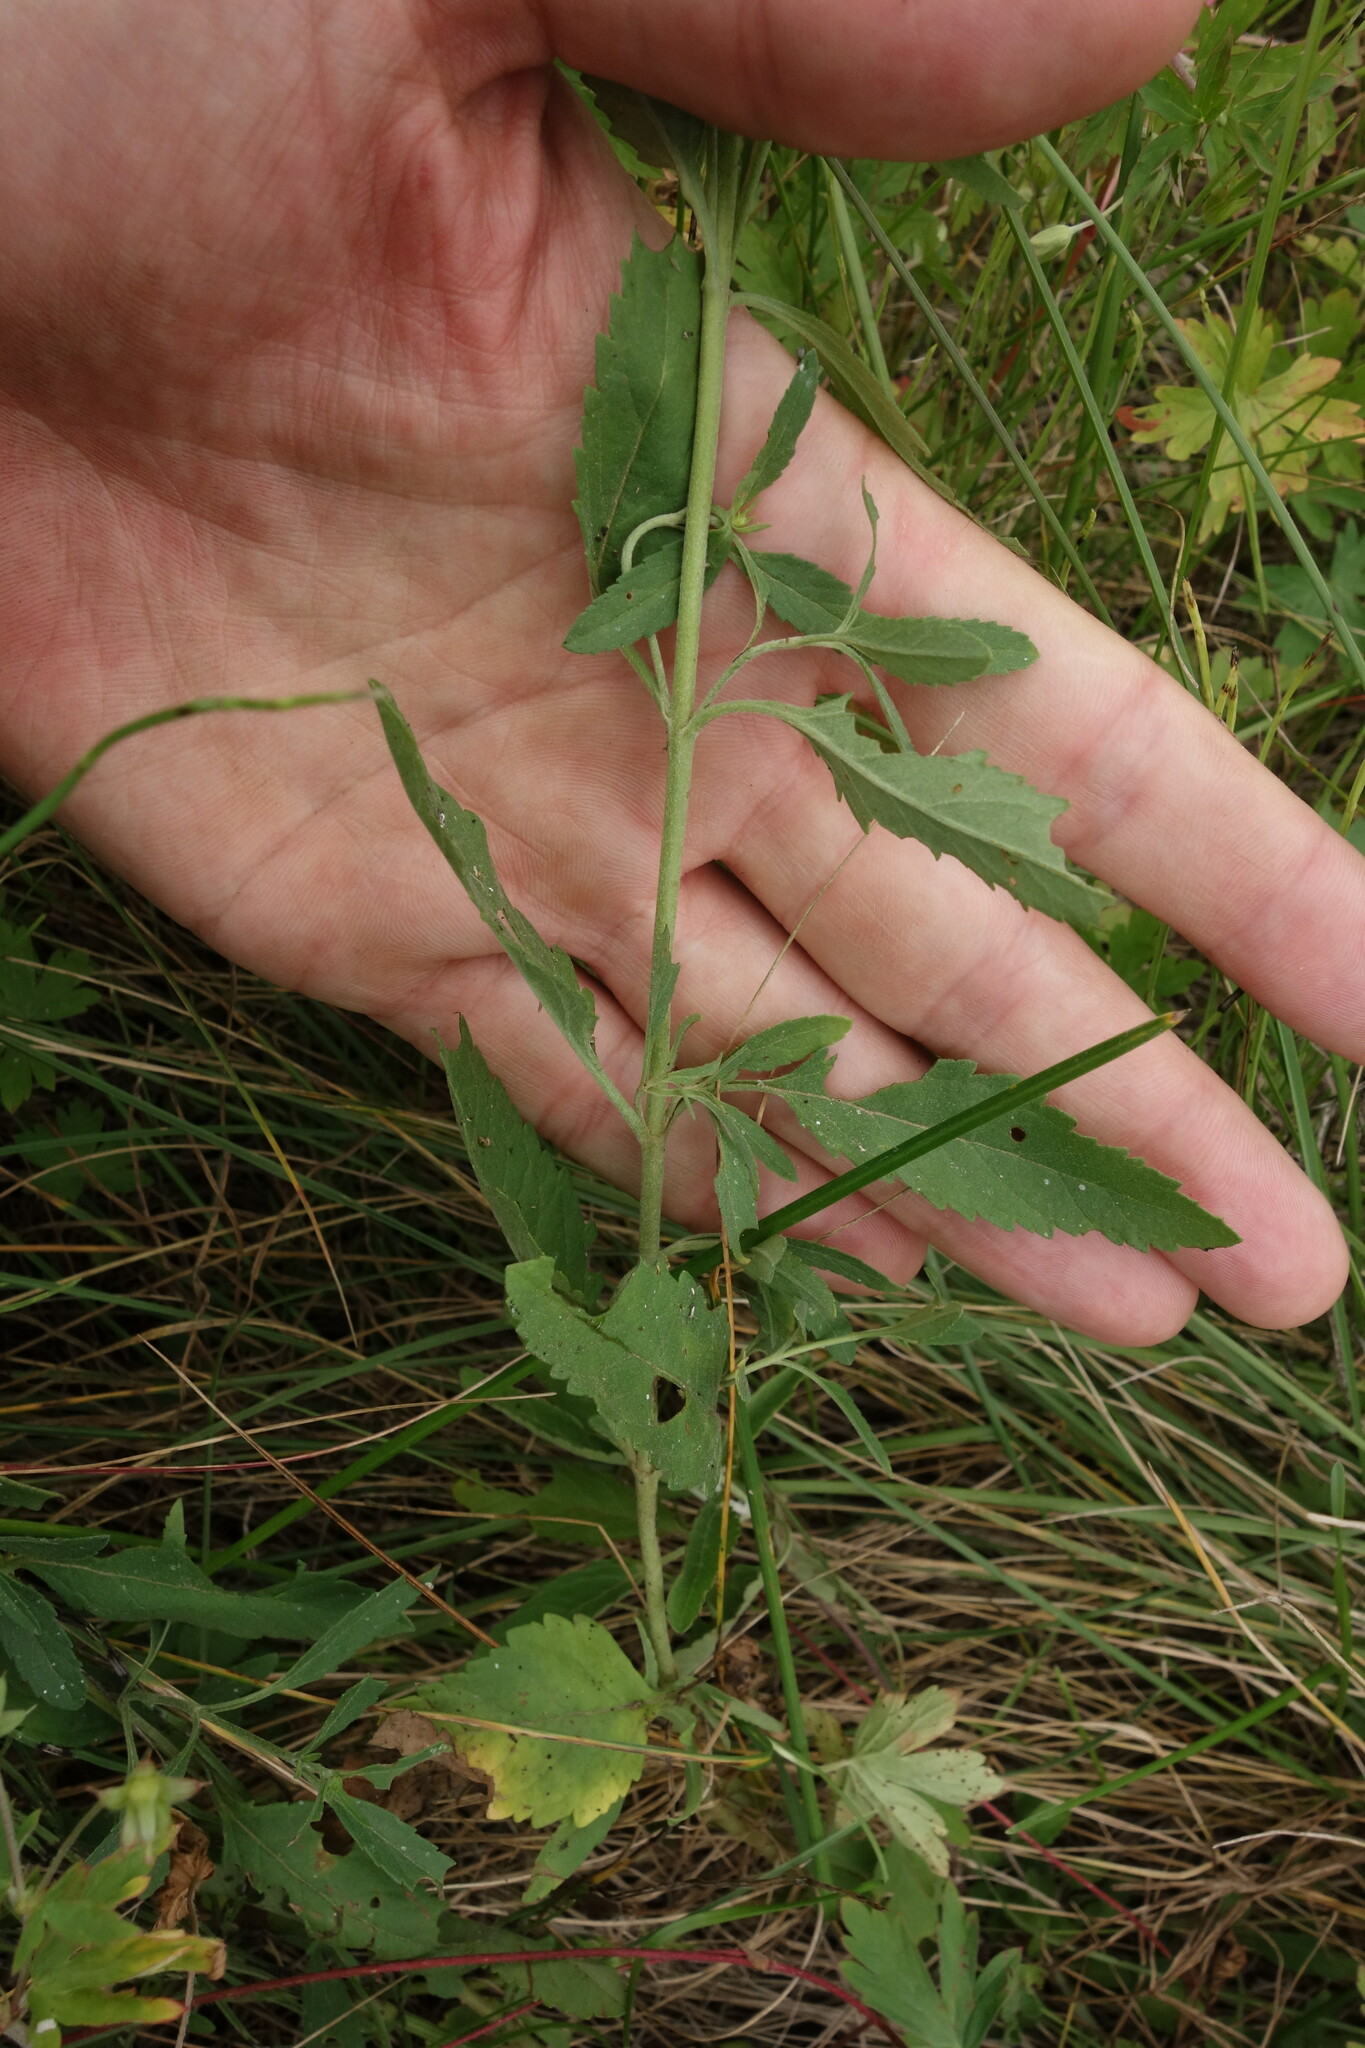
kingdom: Plantae
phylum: Tracheophyta
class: Magnoliopsida
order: Lamiales
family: Plantaginaceae
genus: Veronica
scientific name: Veronica linariifolia
